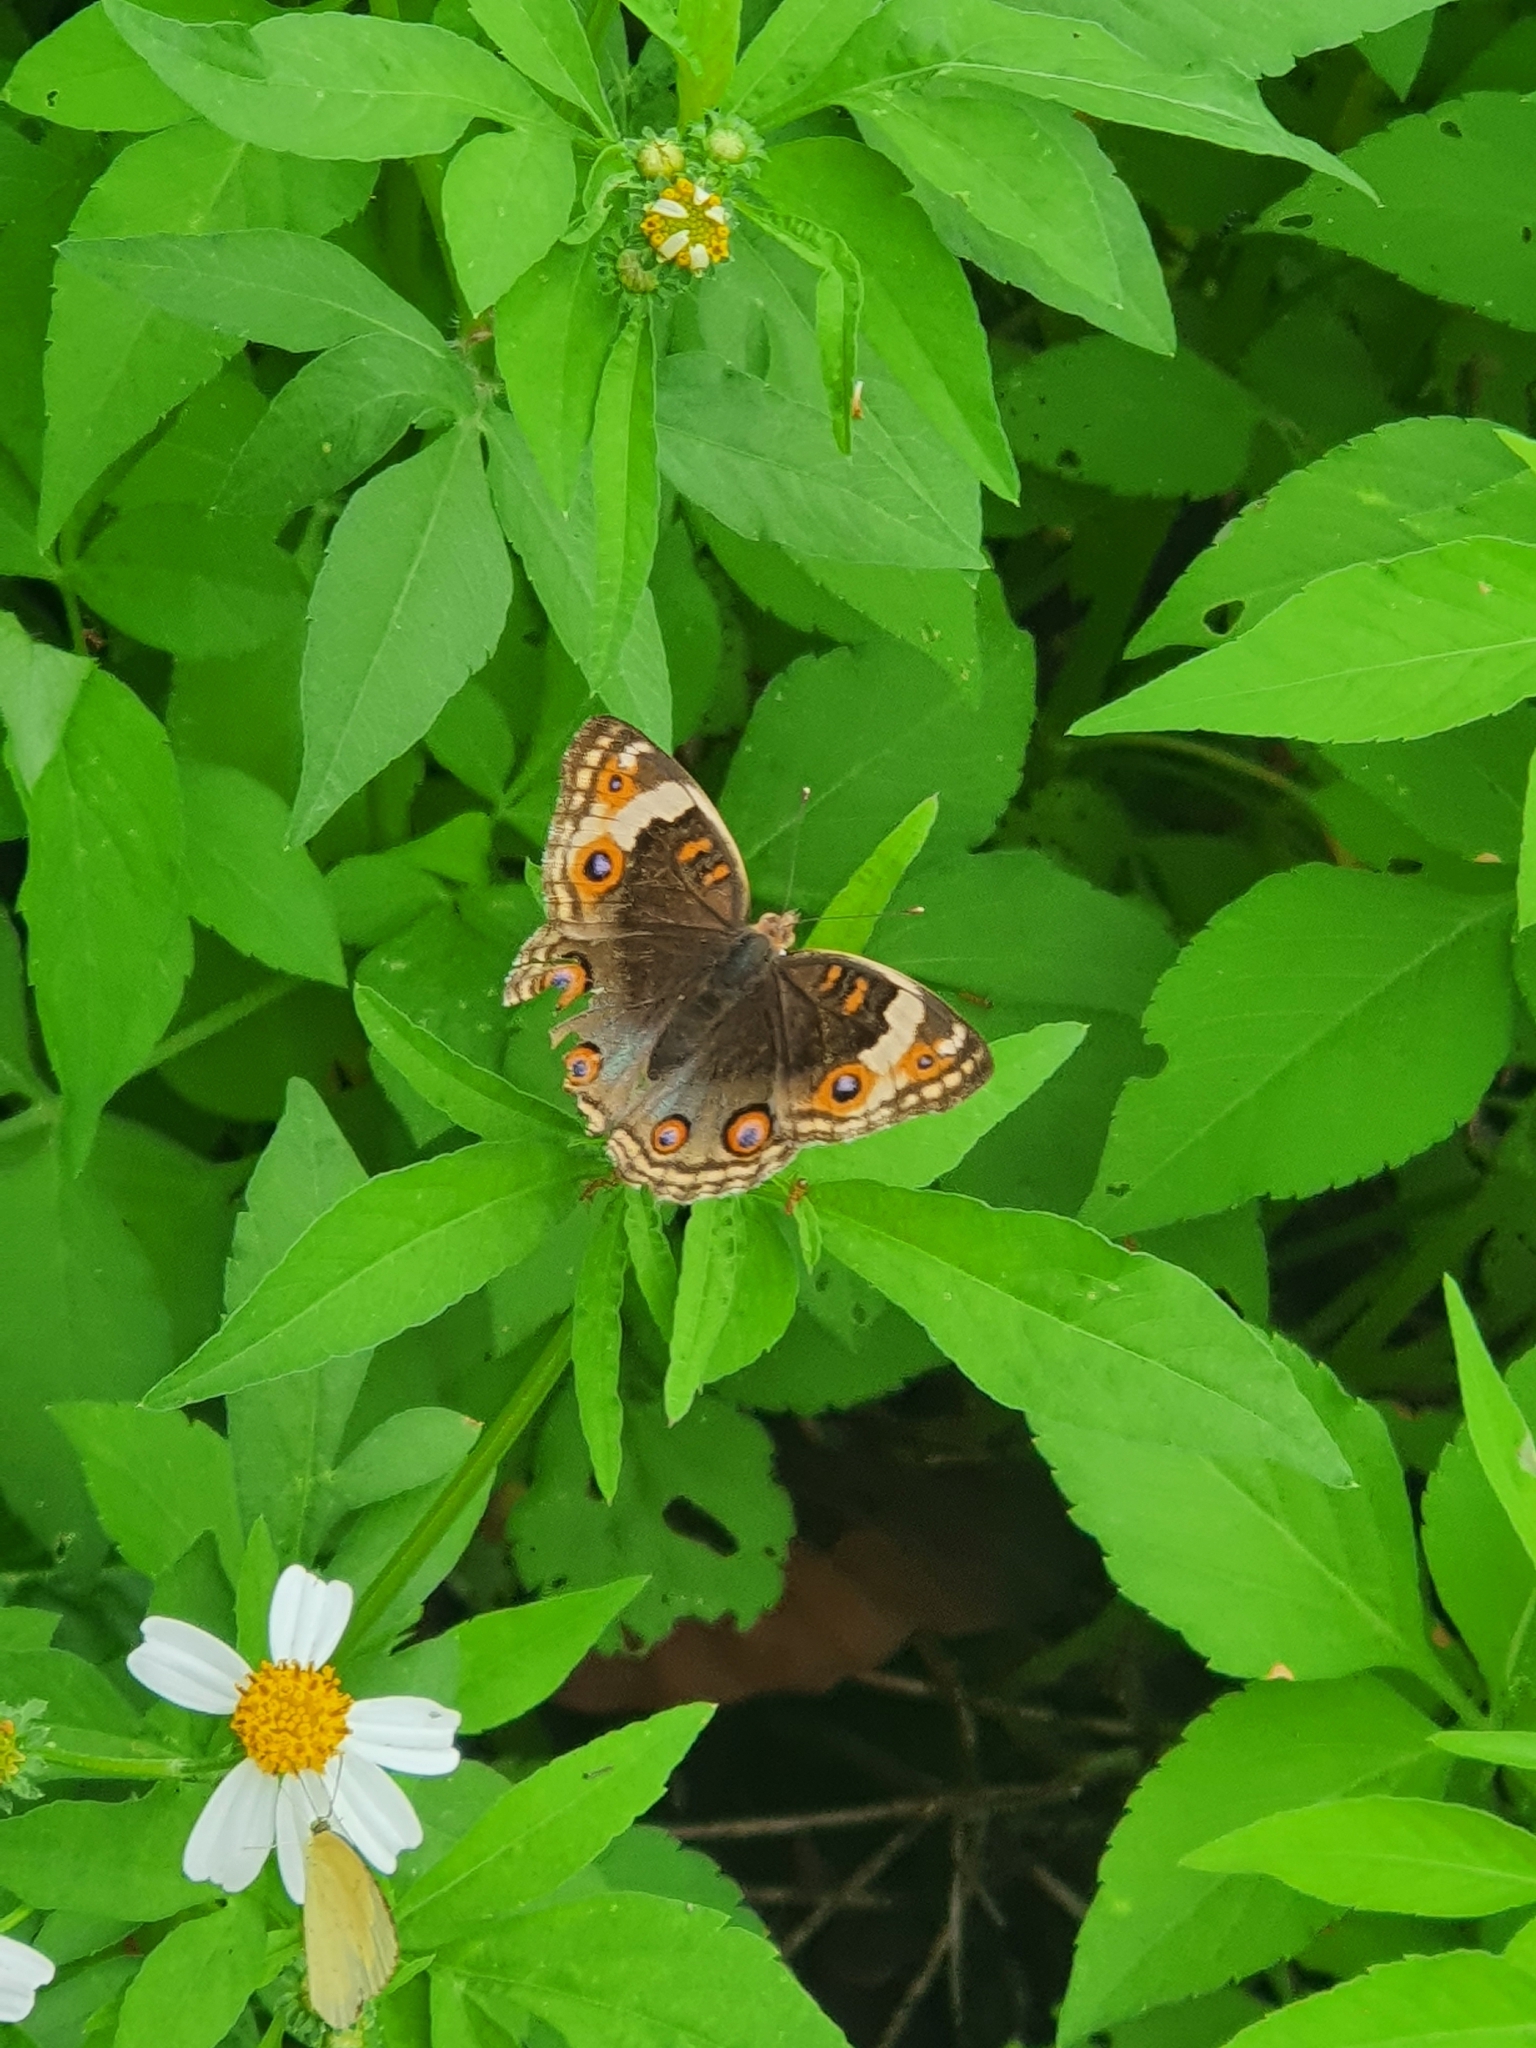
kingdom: Animalia
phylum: Arthropoda
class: Insecta
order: Lepidoptera
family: Nymphalidae
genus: Junonia
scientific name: Junonia orithya
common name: Blue pansy
